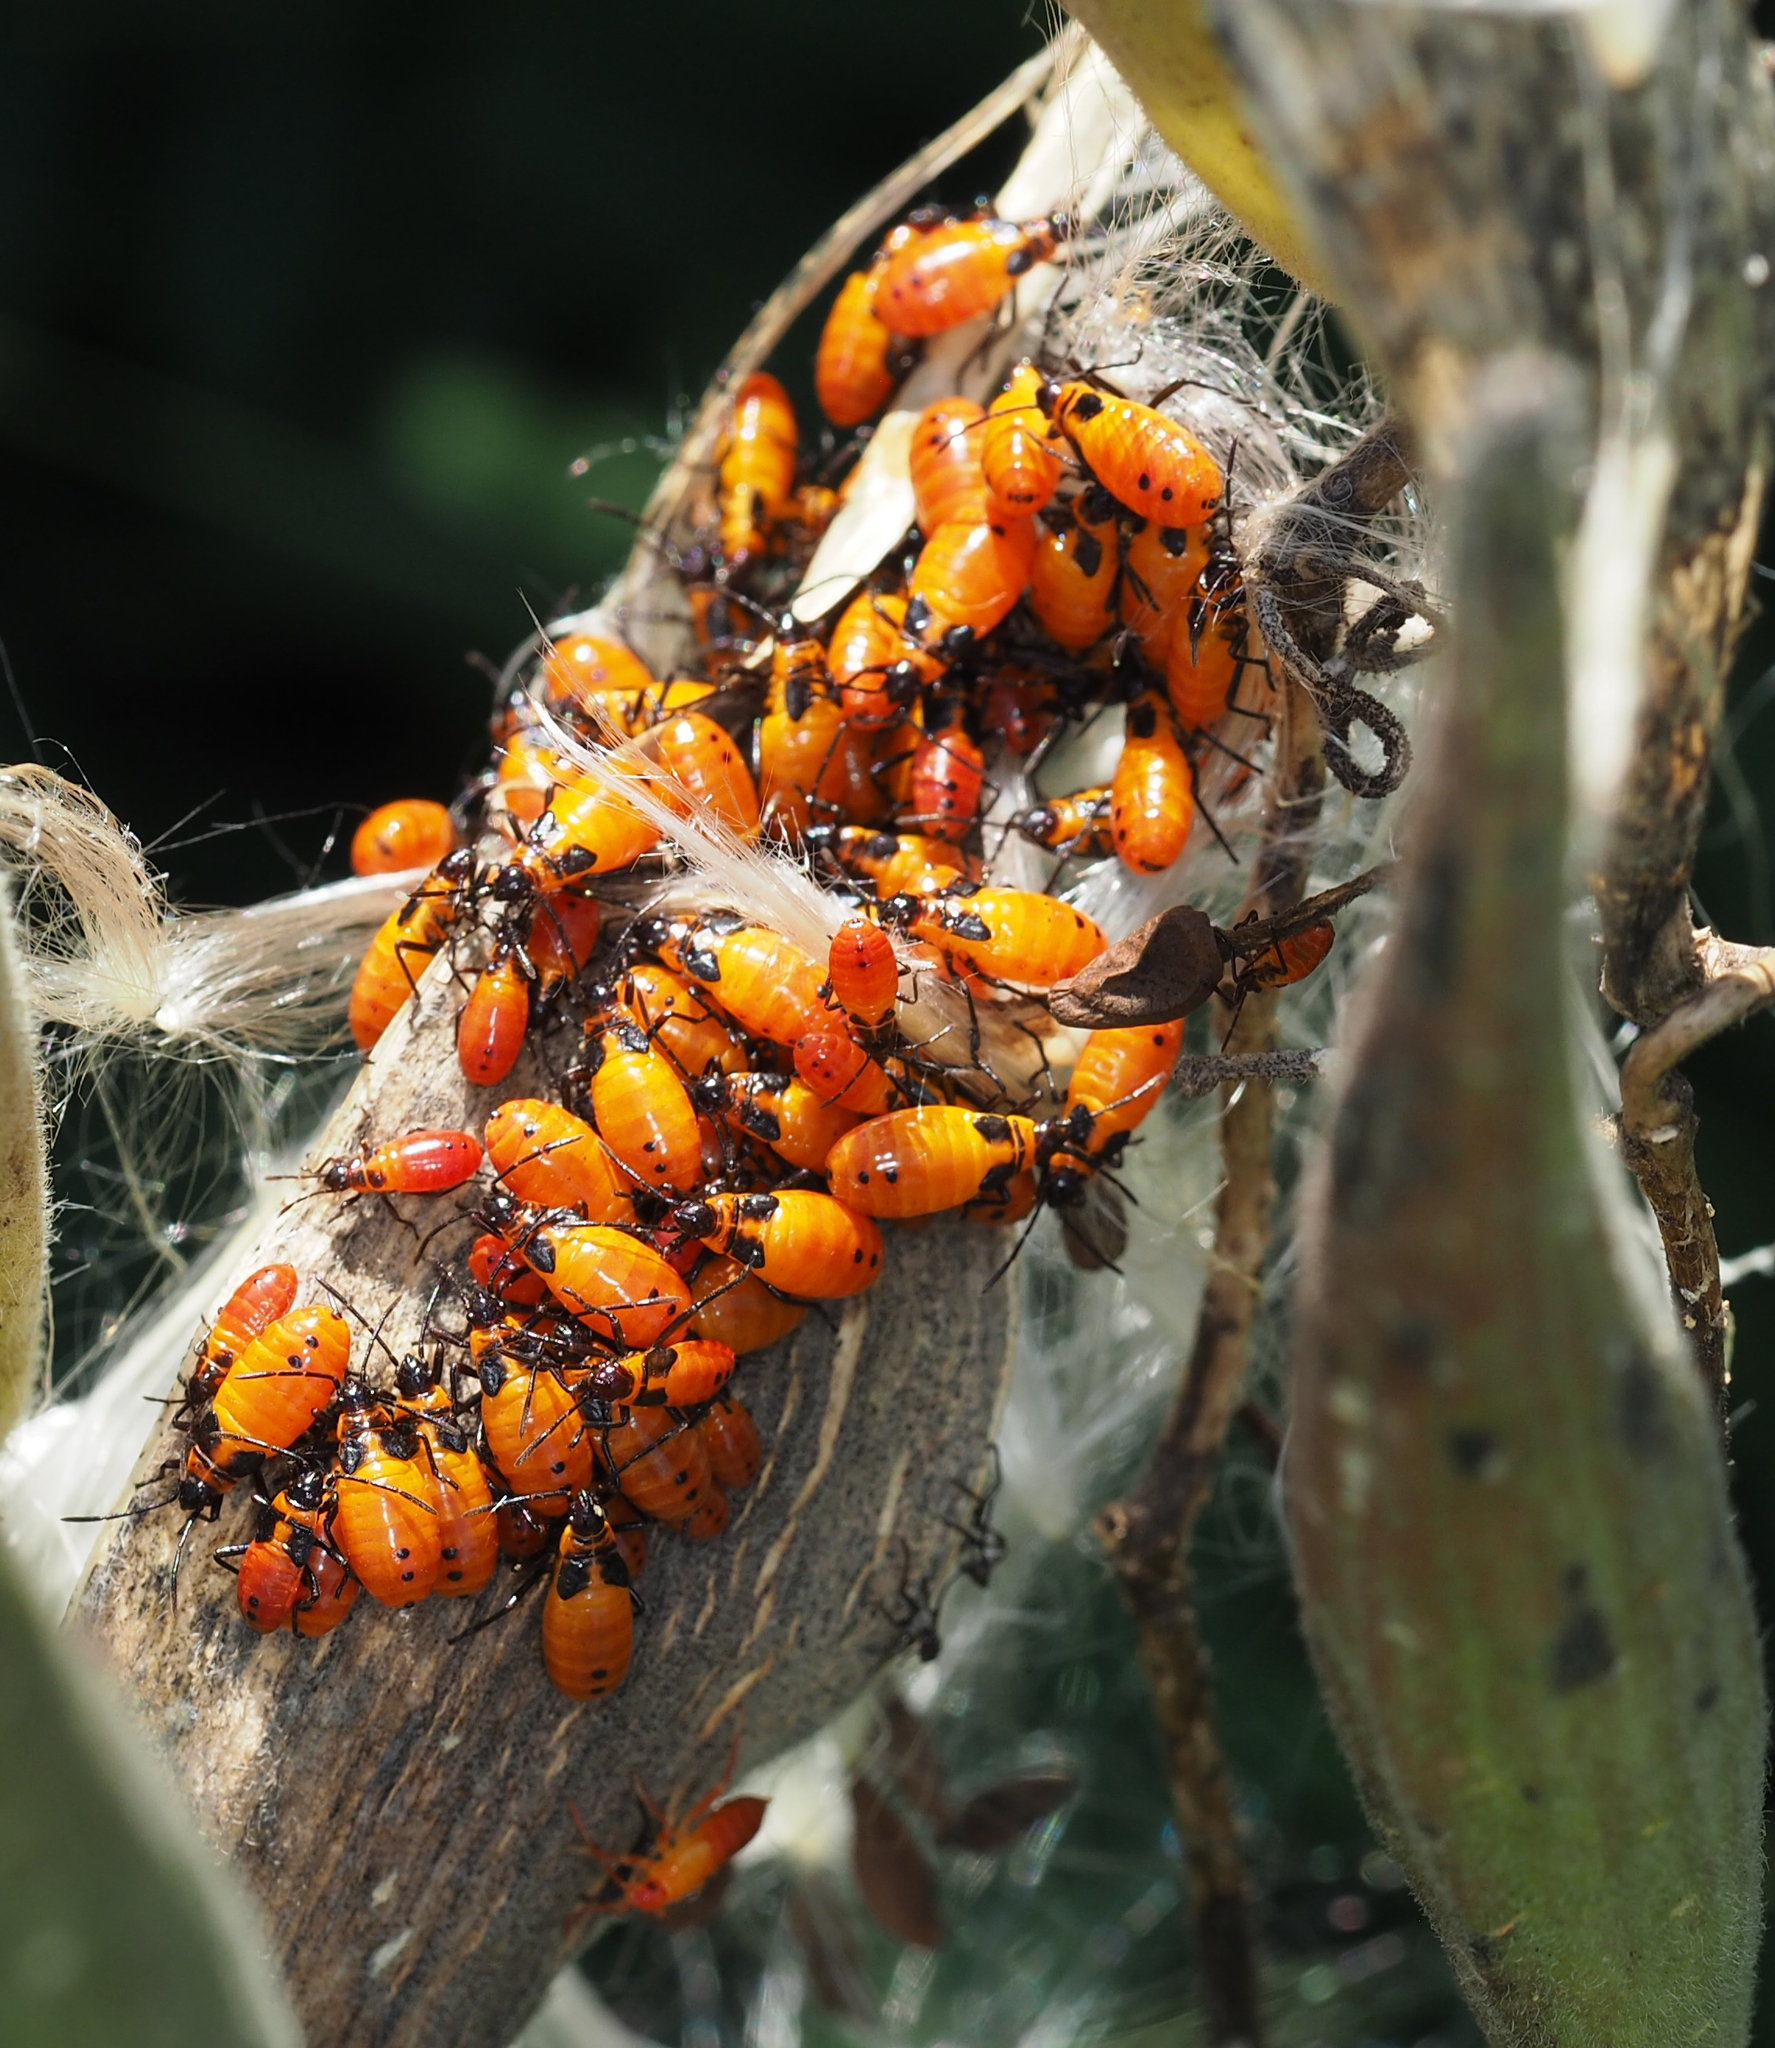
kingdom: Animalia
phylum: Arthropoda
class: Insecta
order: Hemiptera
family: Lygaeidae
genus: Oncopeltus
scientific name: Oncopeltus fasciatus
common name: Large milkweed bug
